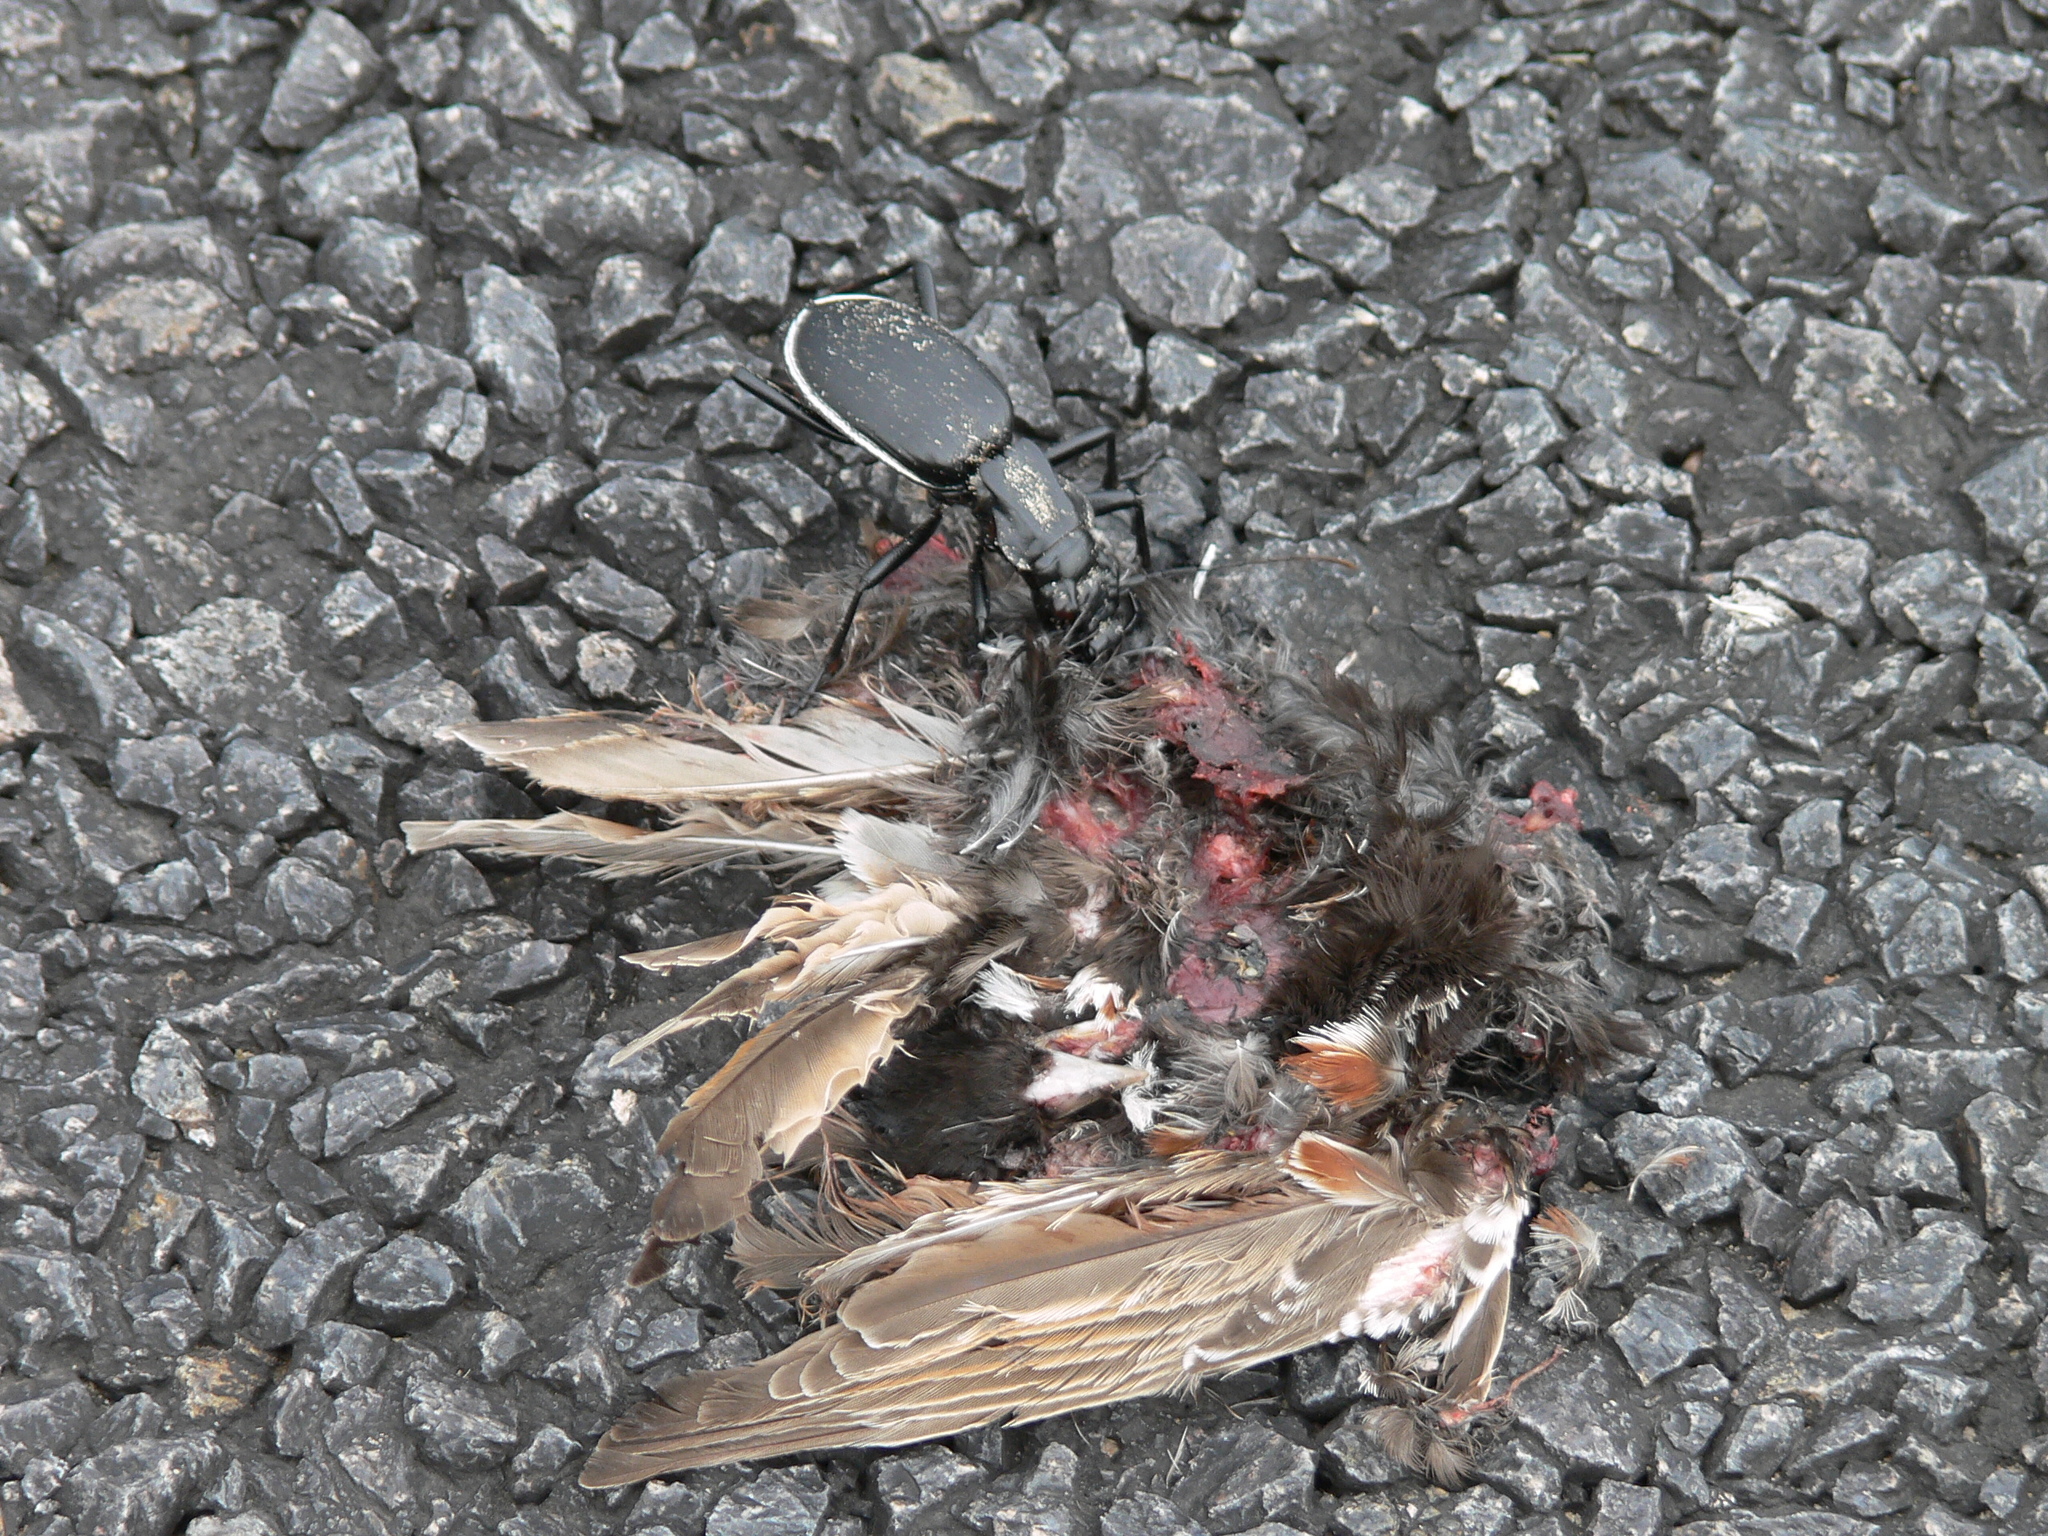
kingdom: Animalia
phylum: Arthropoda
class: Insecta
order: Coleoptera
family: Carabidae
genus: Anthia
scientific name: Anthia cinctipennis
